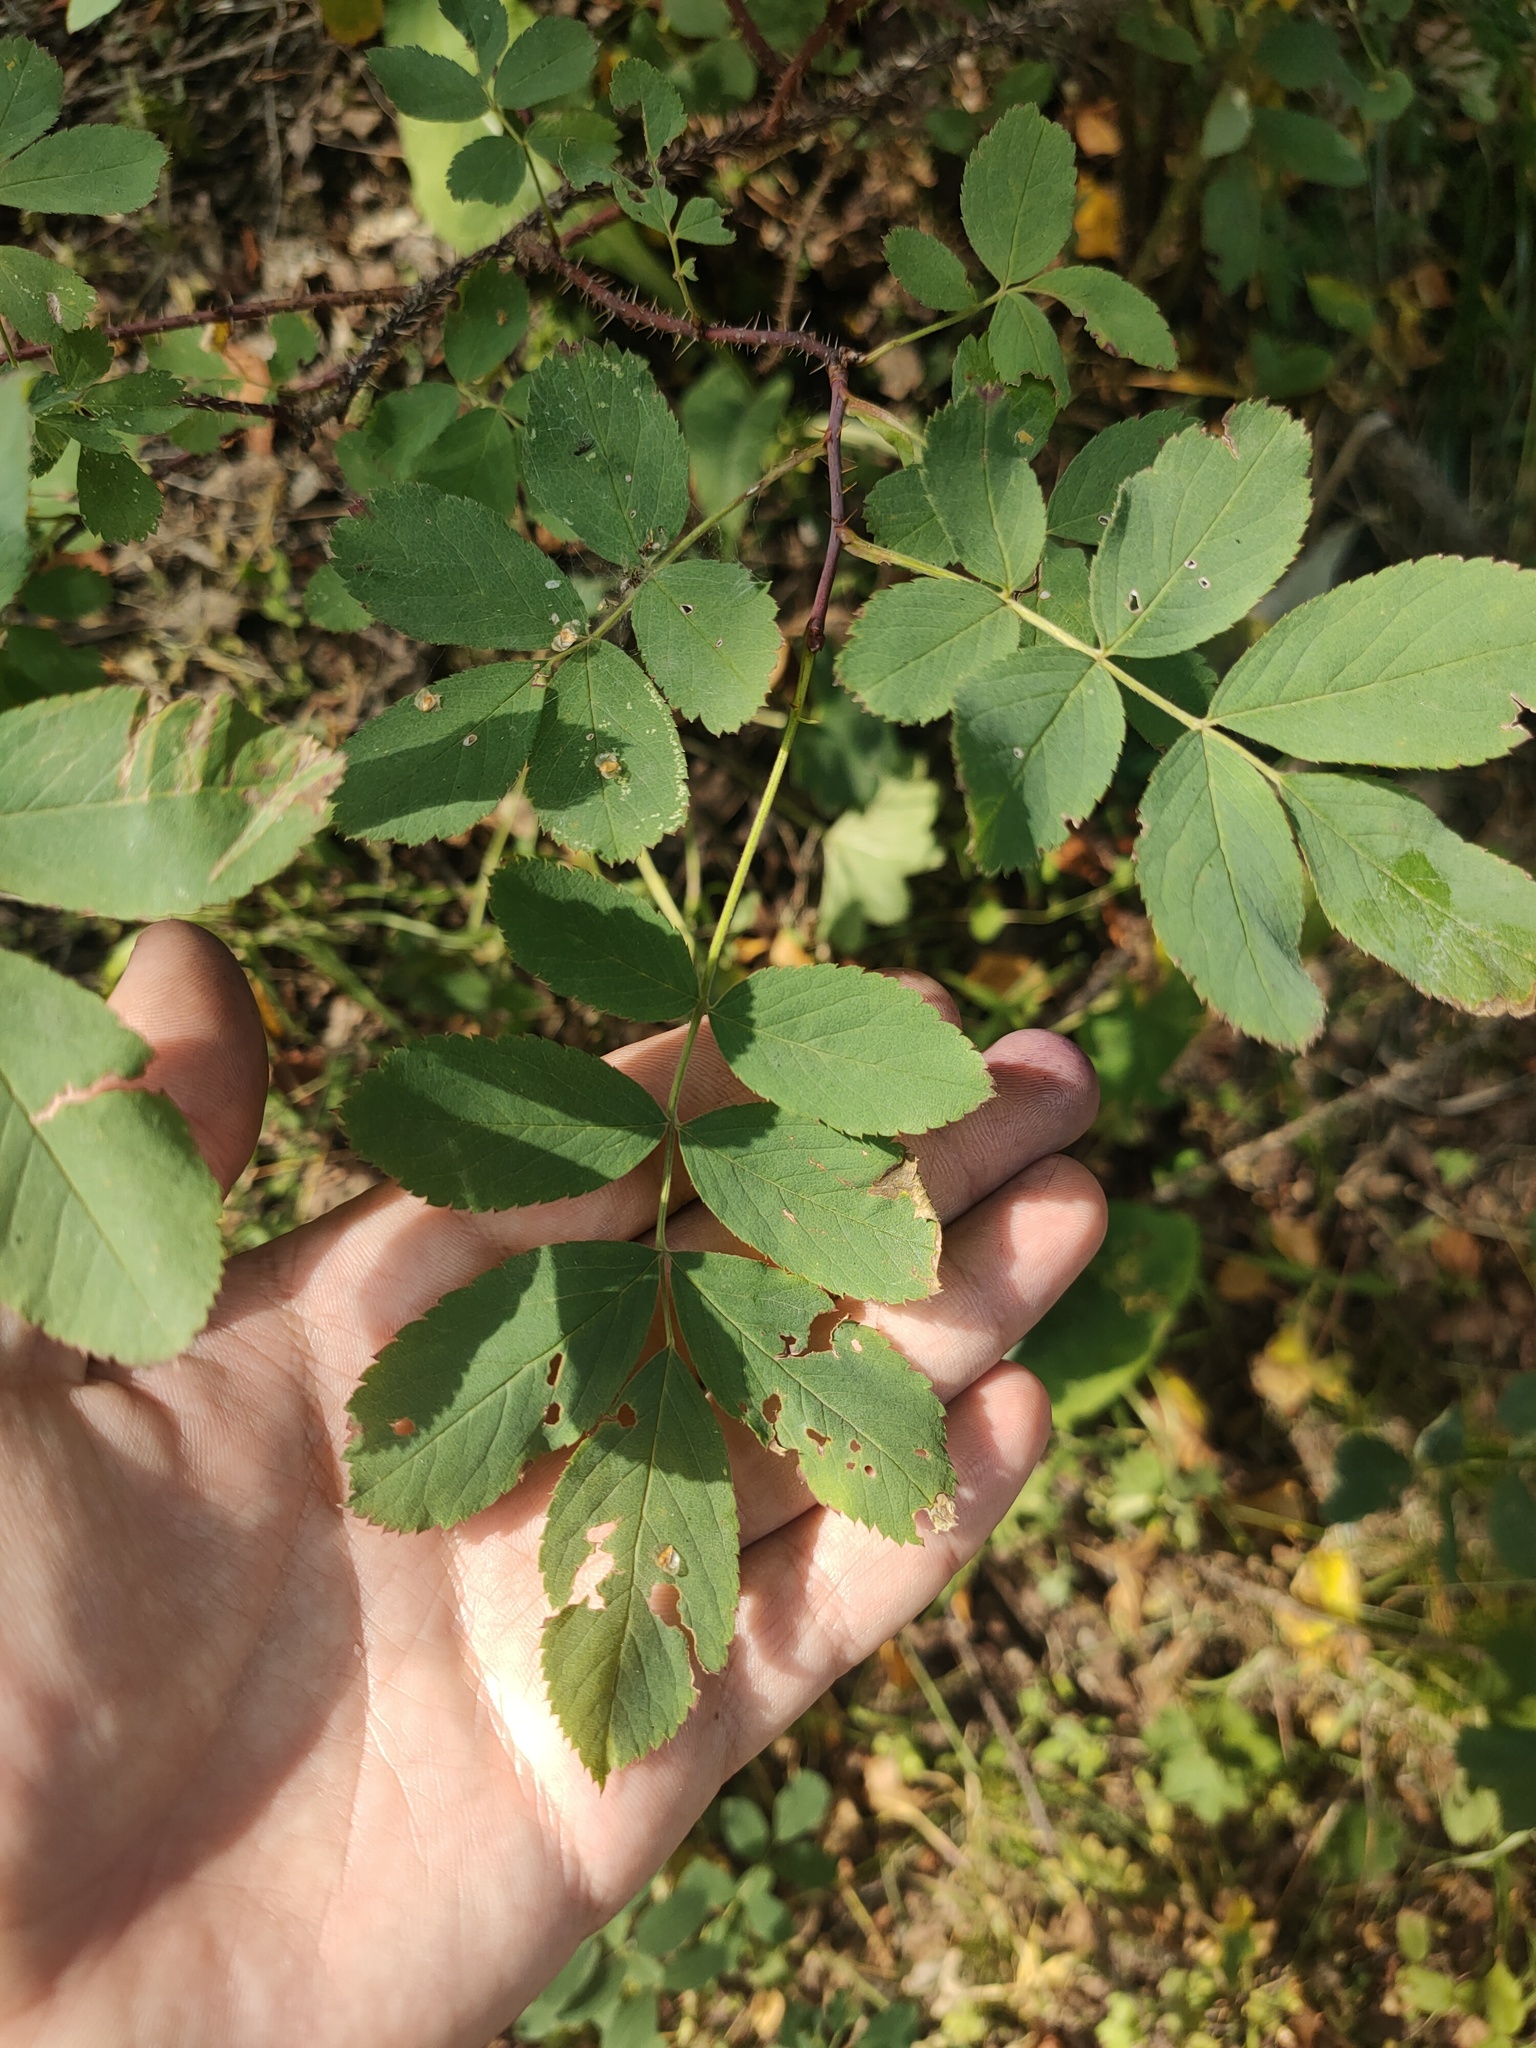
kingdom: Plantae
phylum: Tracheophyta
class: Magnoliopsida
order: Rosales
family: Rosaceae
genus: Rosa
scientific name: Rosa acicularis
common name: Prickly rose
